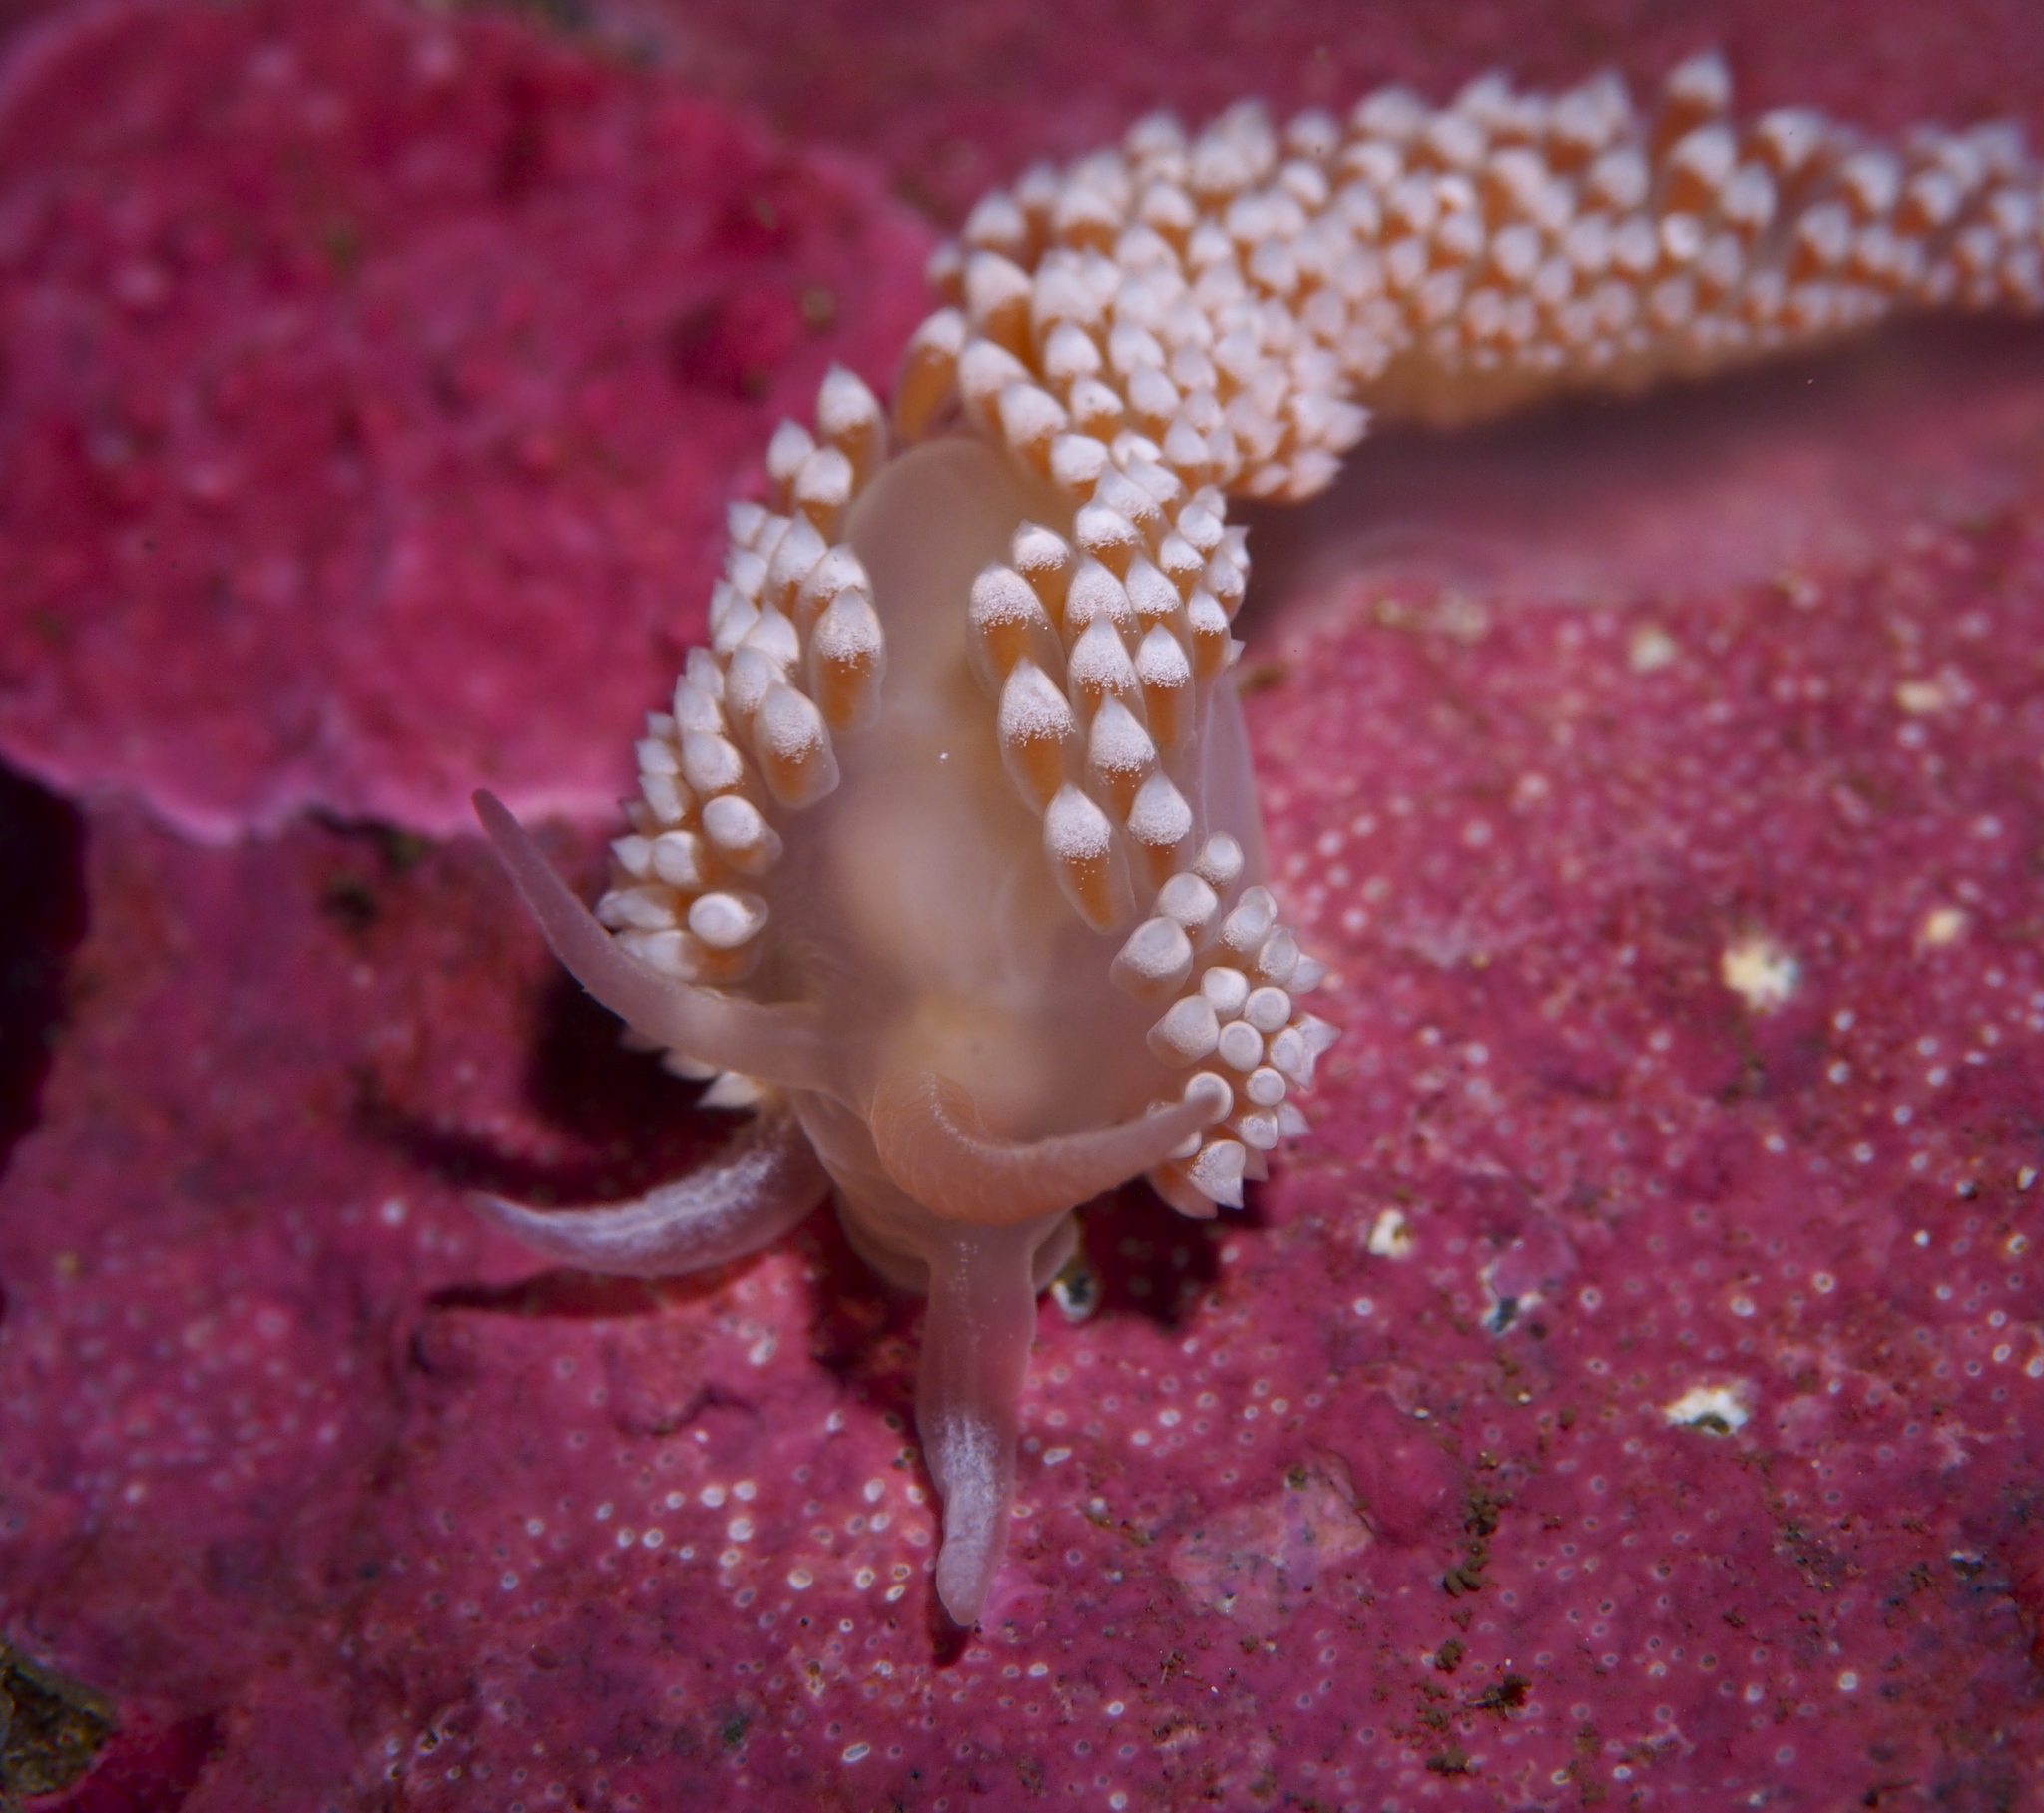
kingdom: Animalia
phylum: Mollusca
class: Gastropoda
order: Nudibranchia
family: Coryphellidae
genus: Coryphella
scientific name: Coryphella verrucosa
